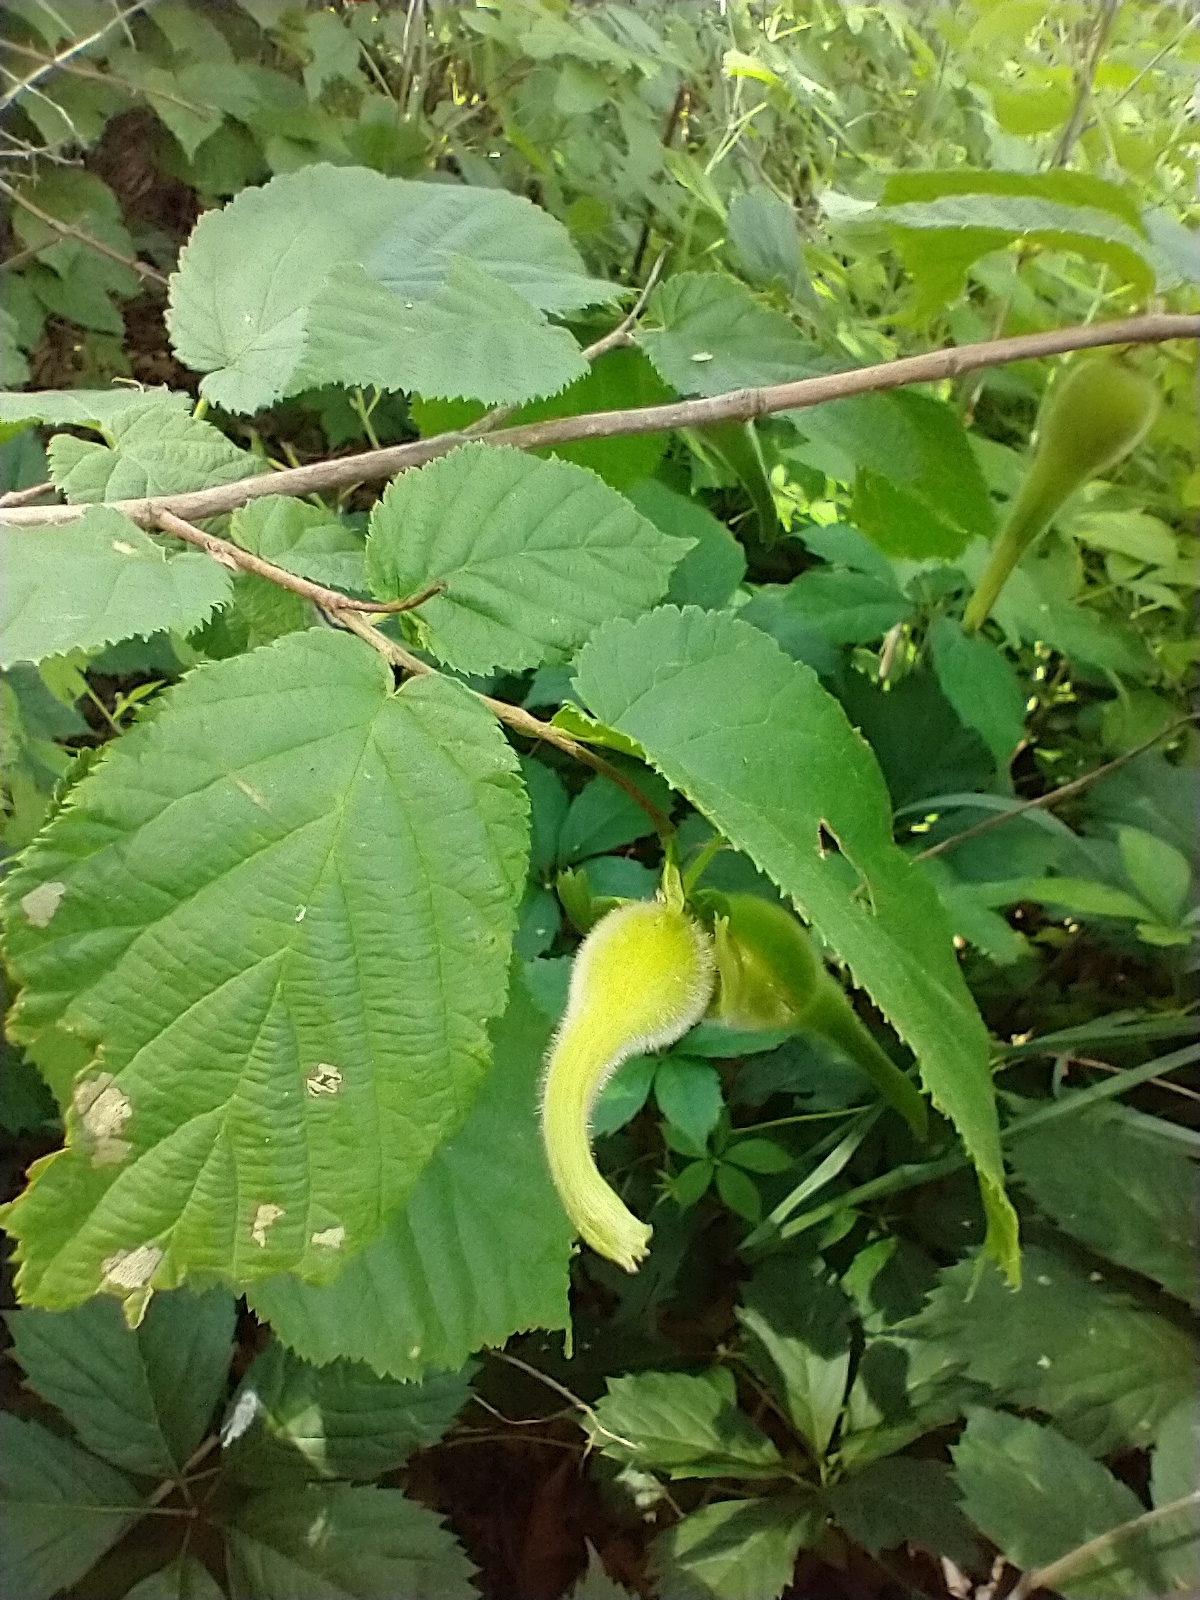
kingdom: Plantae
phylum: Tracheophyta
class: Magnoliopsida
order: Fagales
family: Betulaceae
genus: Corylus
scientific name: Corylus cornuta
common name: Beaked hazel
